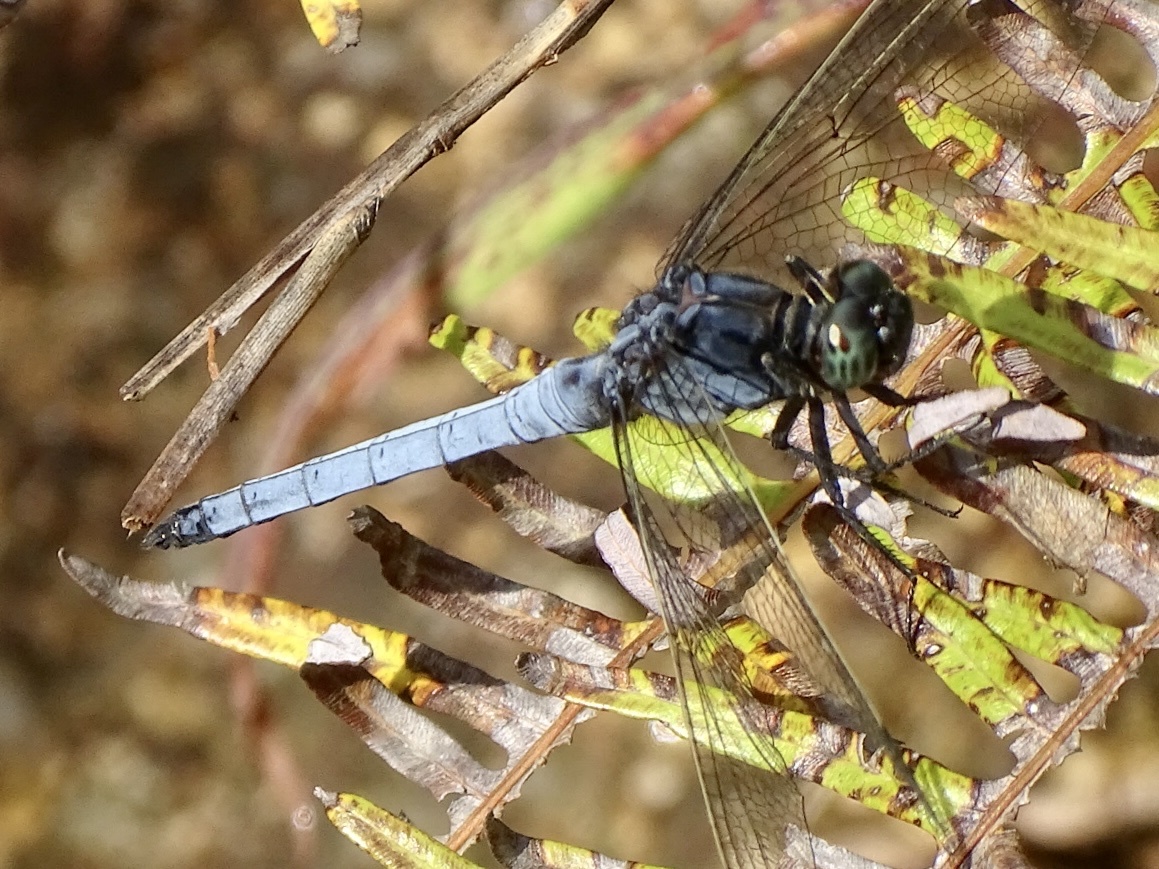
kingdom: Animalia
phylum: Arthropoda
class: Insecta
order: Odonata
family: Libellulidae
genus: Orthetrum
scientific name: Orthetrum glaucum
